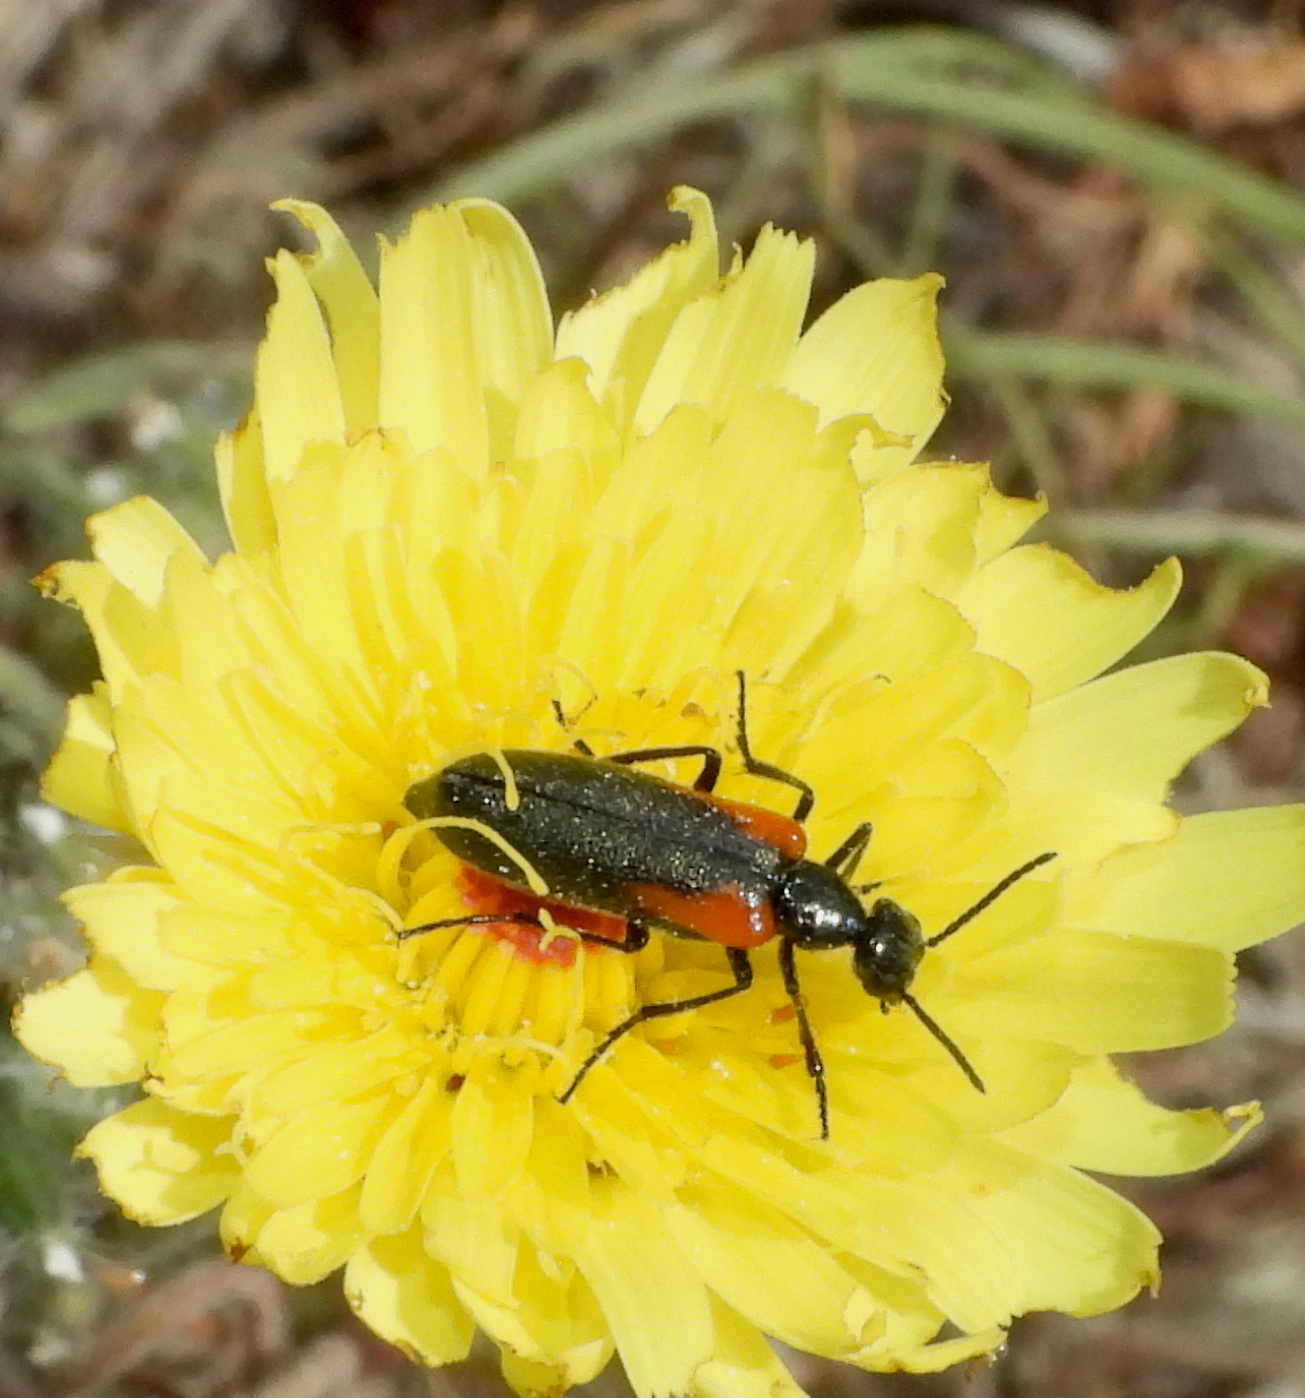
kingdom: Animalia
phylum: Arthropoda
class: Insecta
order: Coleoptera
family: Meloidae
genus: Eupompha
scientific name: Eupompha elegans
